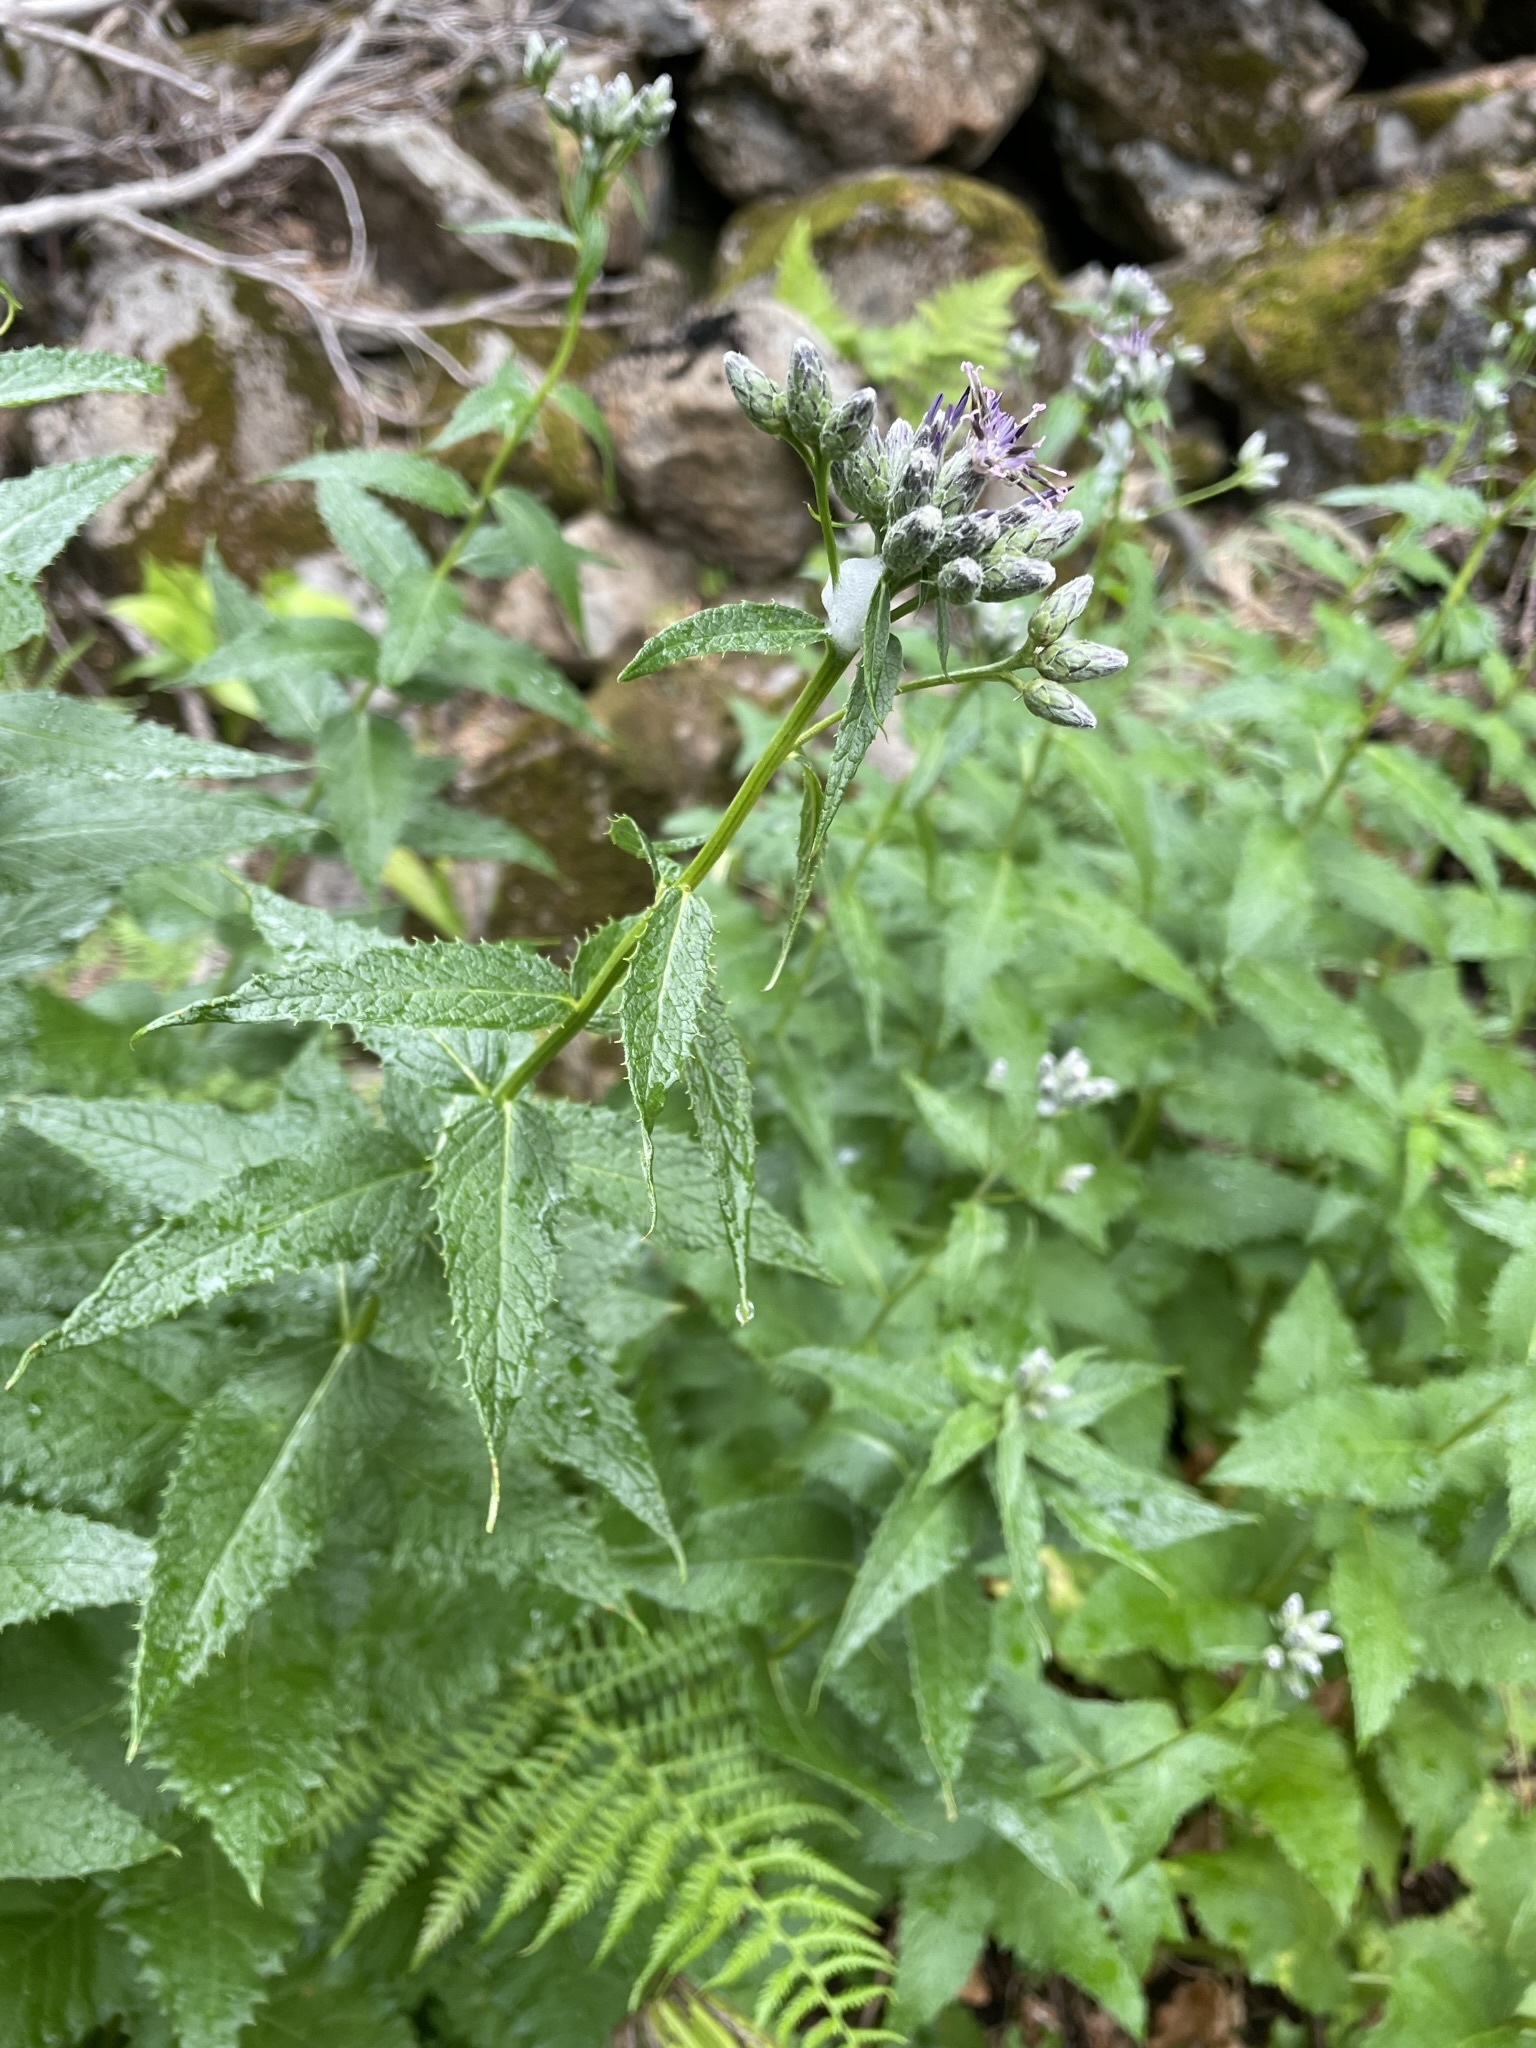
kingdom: Plantae
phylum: Tracheophyta
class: Magnoliopsida
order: Asterales
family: Asteraceae
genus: Saussurea
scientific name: Saussurea americana
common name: American saw-wort
